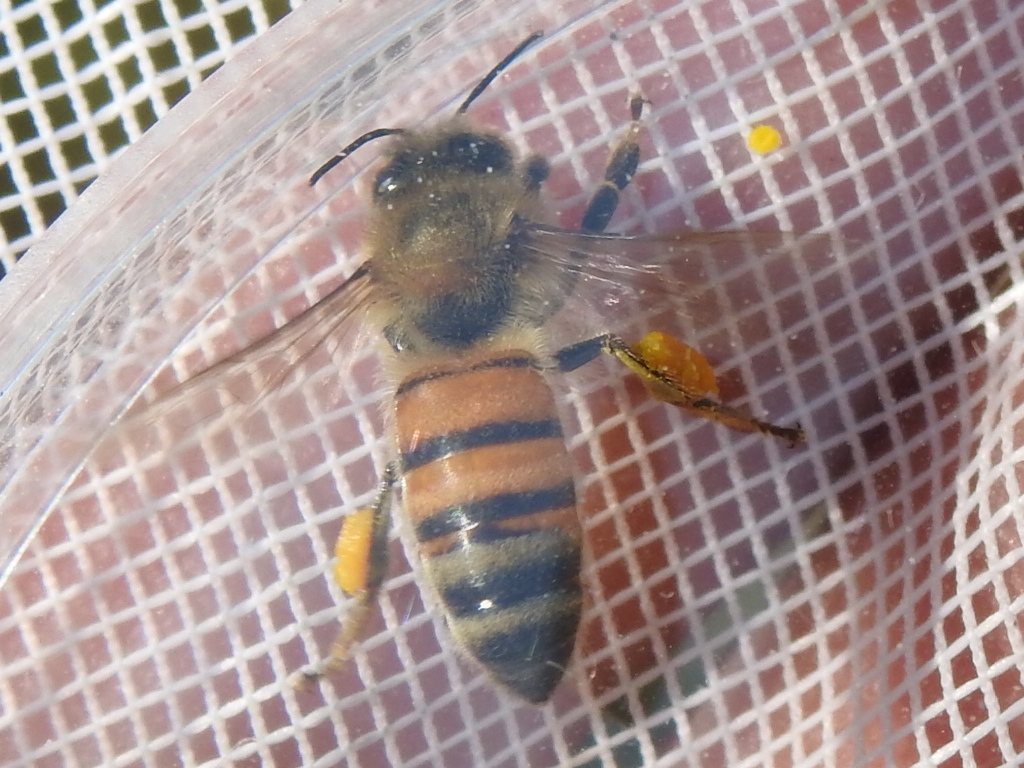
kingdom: Animalia
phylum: Arthropoda
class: Insecta
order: Hymenoptera
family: Apidae
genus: Apis
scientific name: Apis mellifera
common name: Honey bee
